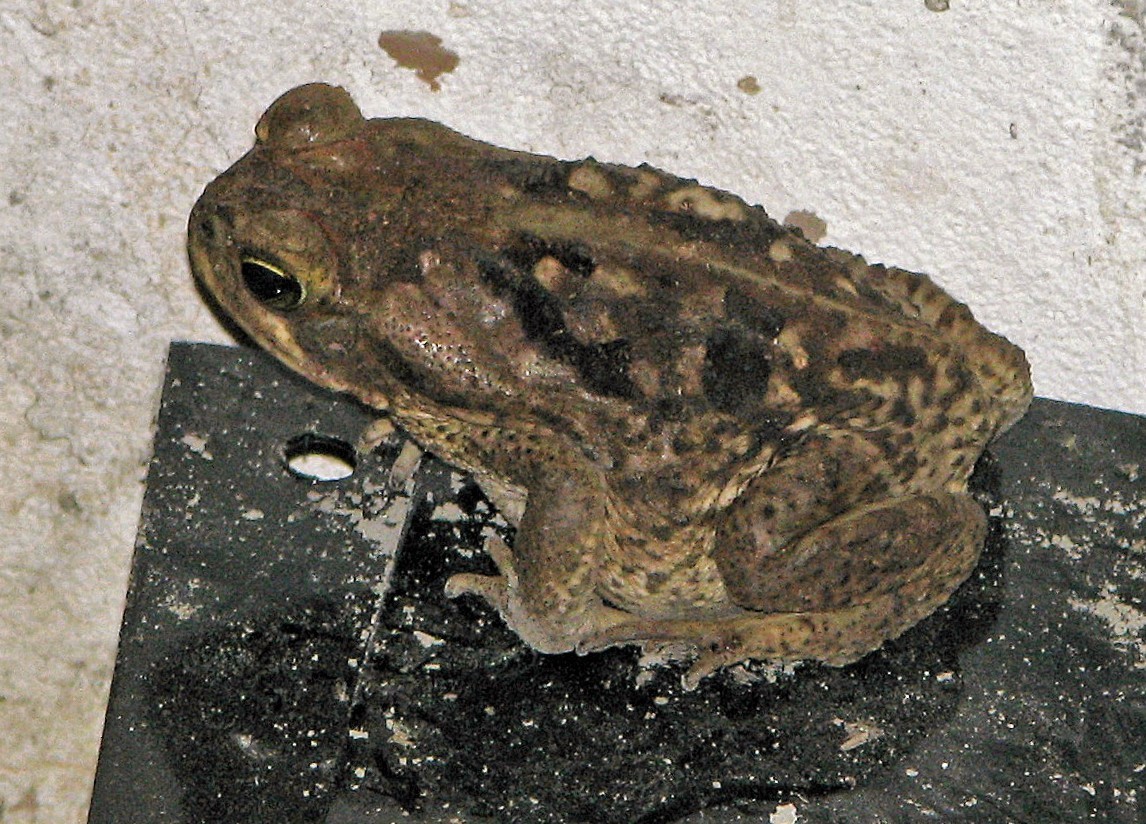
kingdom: Animalia
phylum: Chordata
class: Amphibia
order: Anura
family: Bufonidae
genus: Rhinella
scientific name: Rhinella diptycha
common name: Cope's toad
